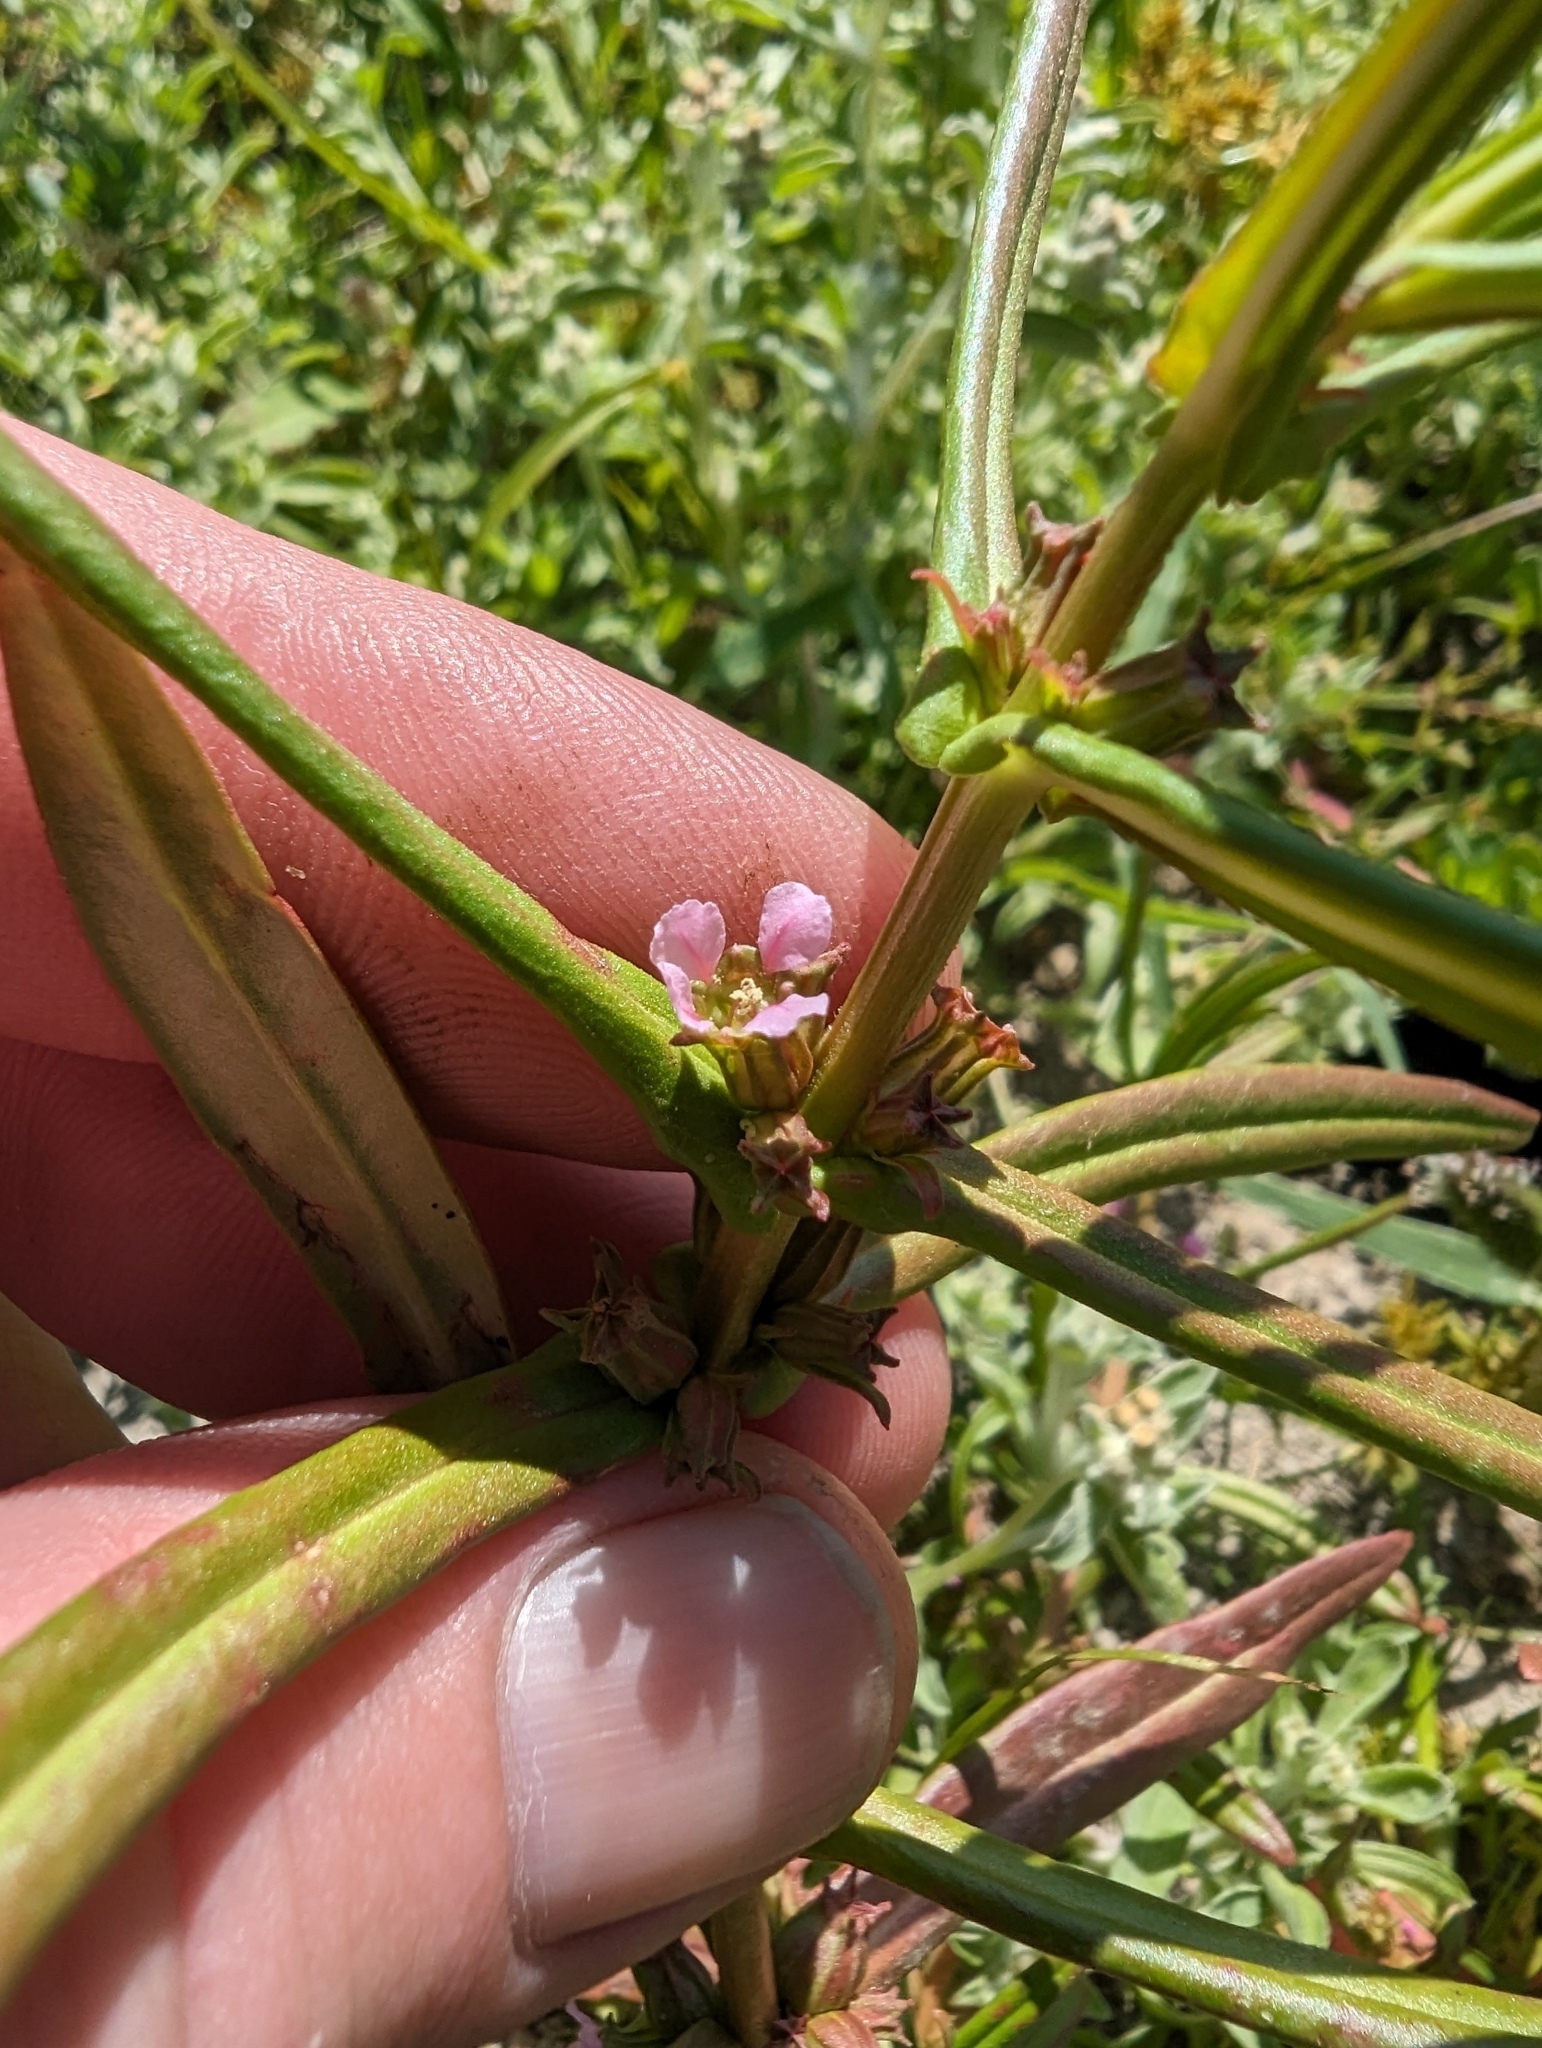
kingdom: Plantae
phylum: Tracheophyta
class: Magnoliopsida
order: Myrtales
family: Lythraceae
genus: Ammannia
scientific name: Ammannia robusta
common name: Grand ammannia
